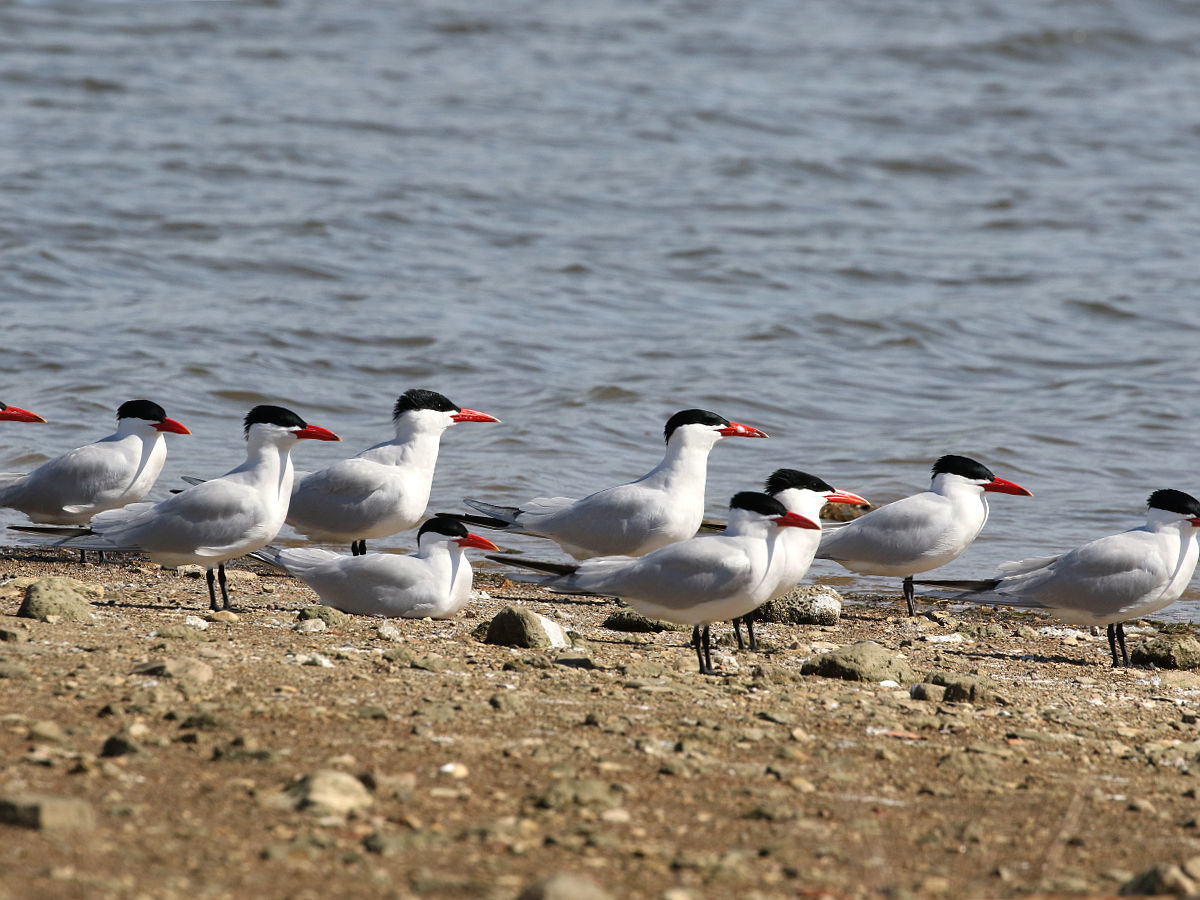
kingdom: Animalia
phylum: Chordata
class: Aves
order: Charadriiformes
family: Laridae
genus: Hydroprogne
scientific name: Hydroprogne caspia
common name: Caspian tern
